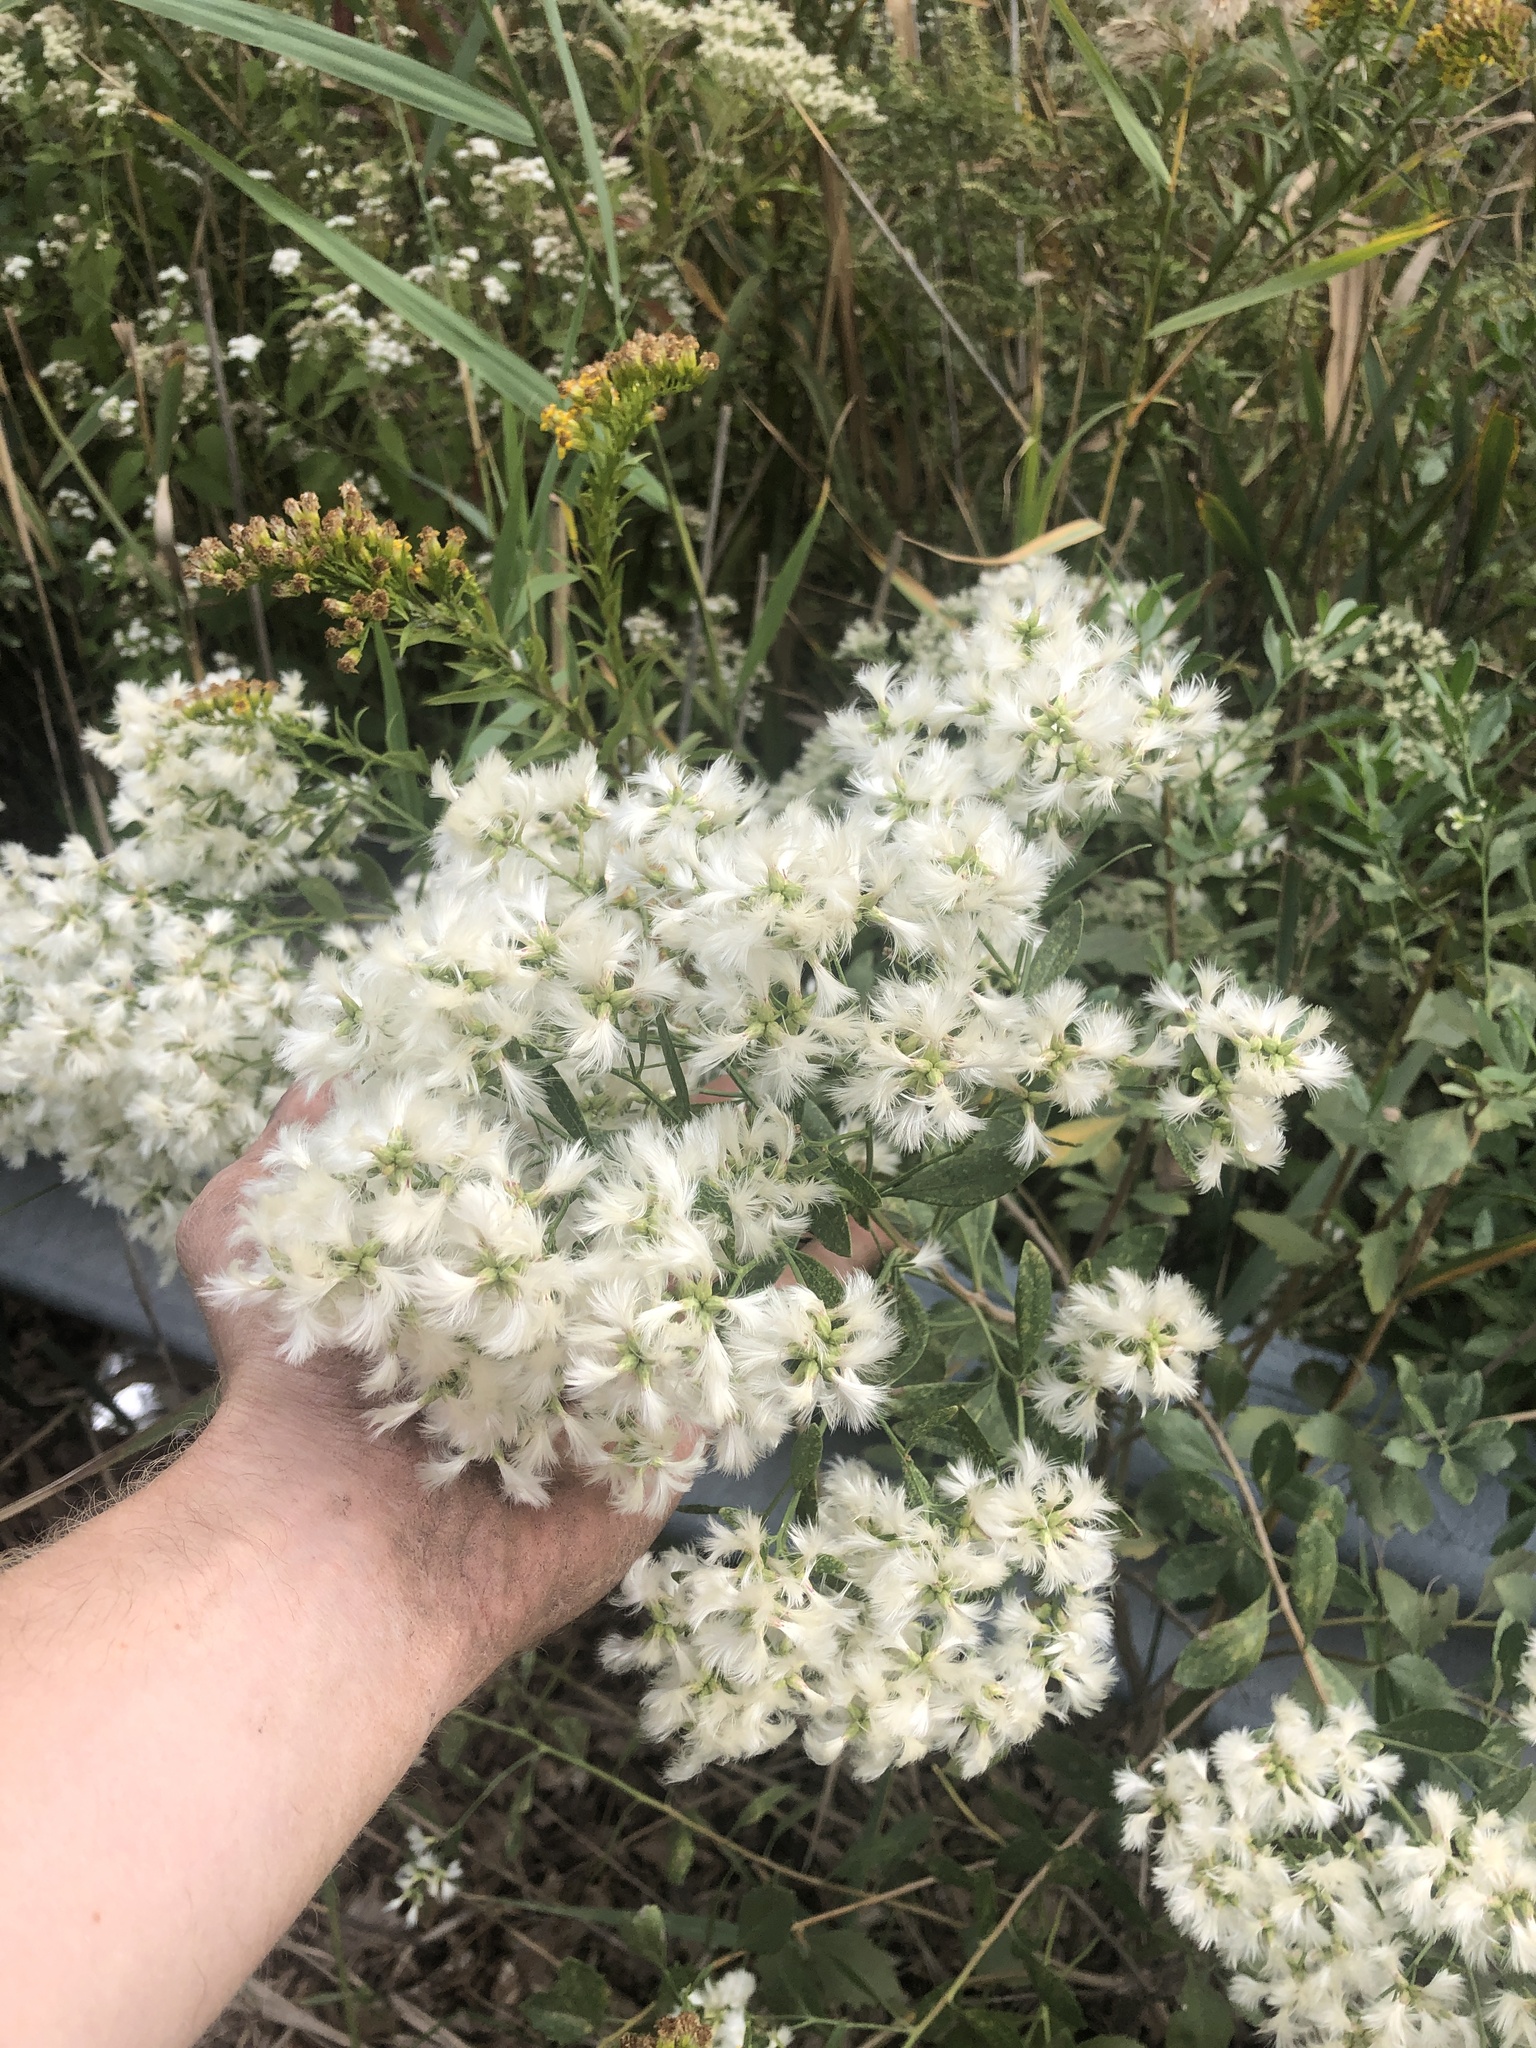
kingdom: Plantae
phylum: Tracheophyta
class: Magnoliopsida
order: Asterales
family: Asteraceae
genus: Baccharis
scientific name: Baccharis halimifolia
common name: Eastern baccharis
